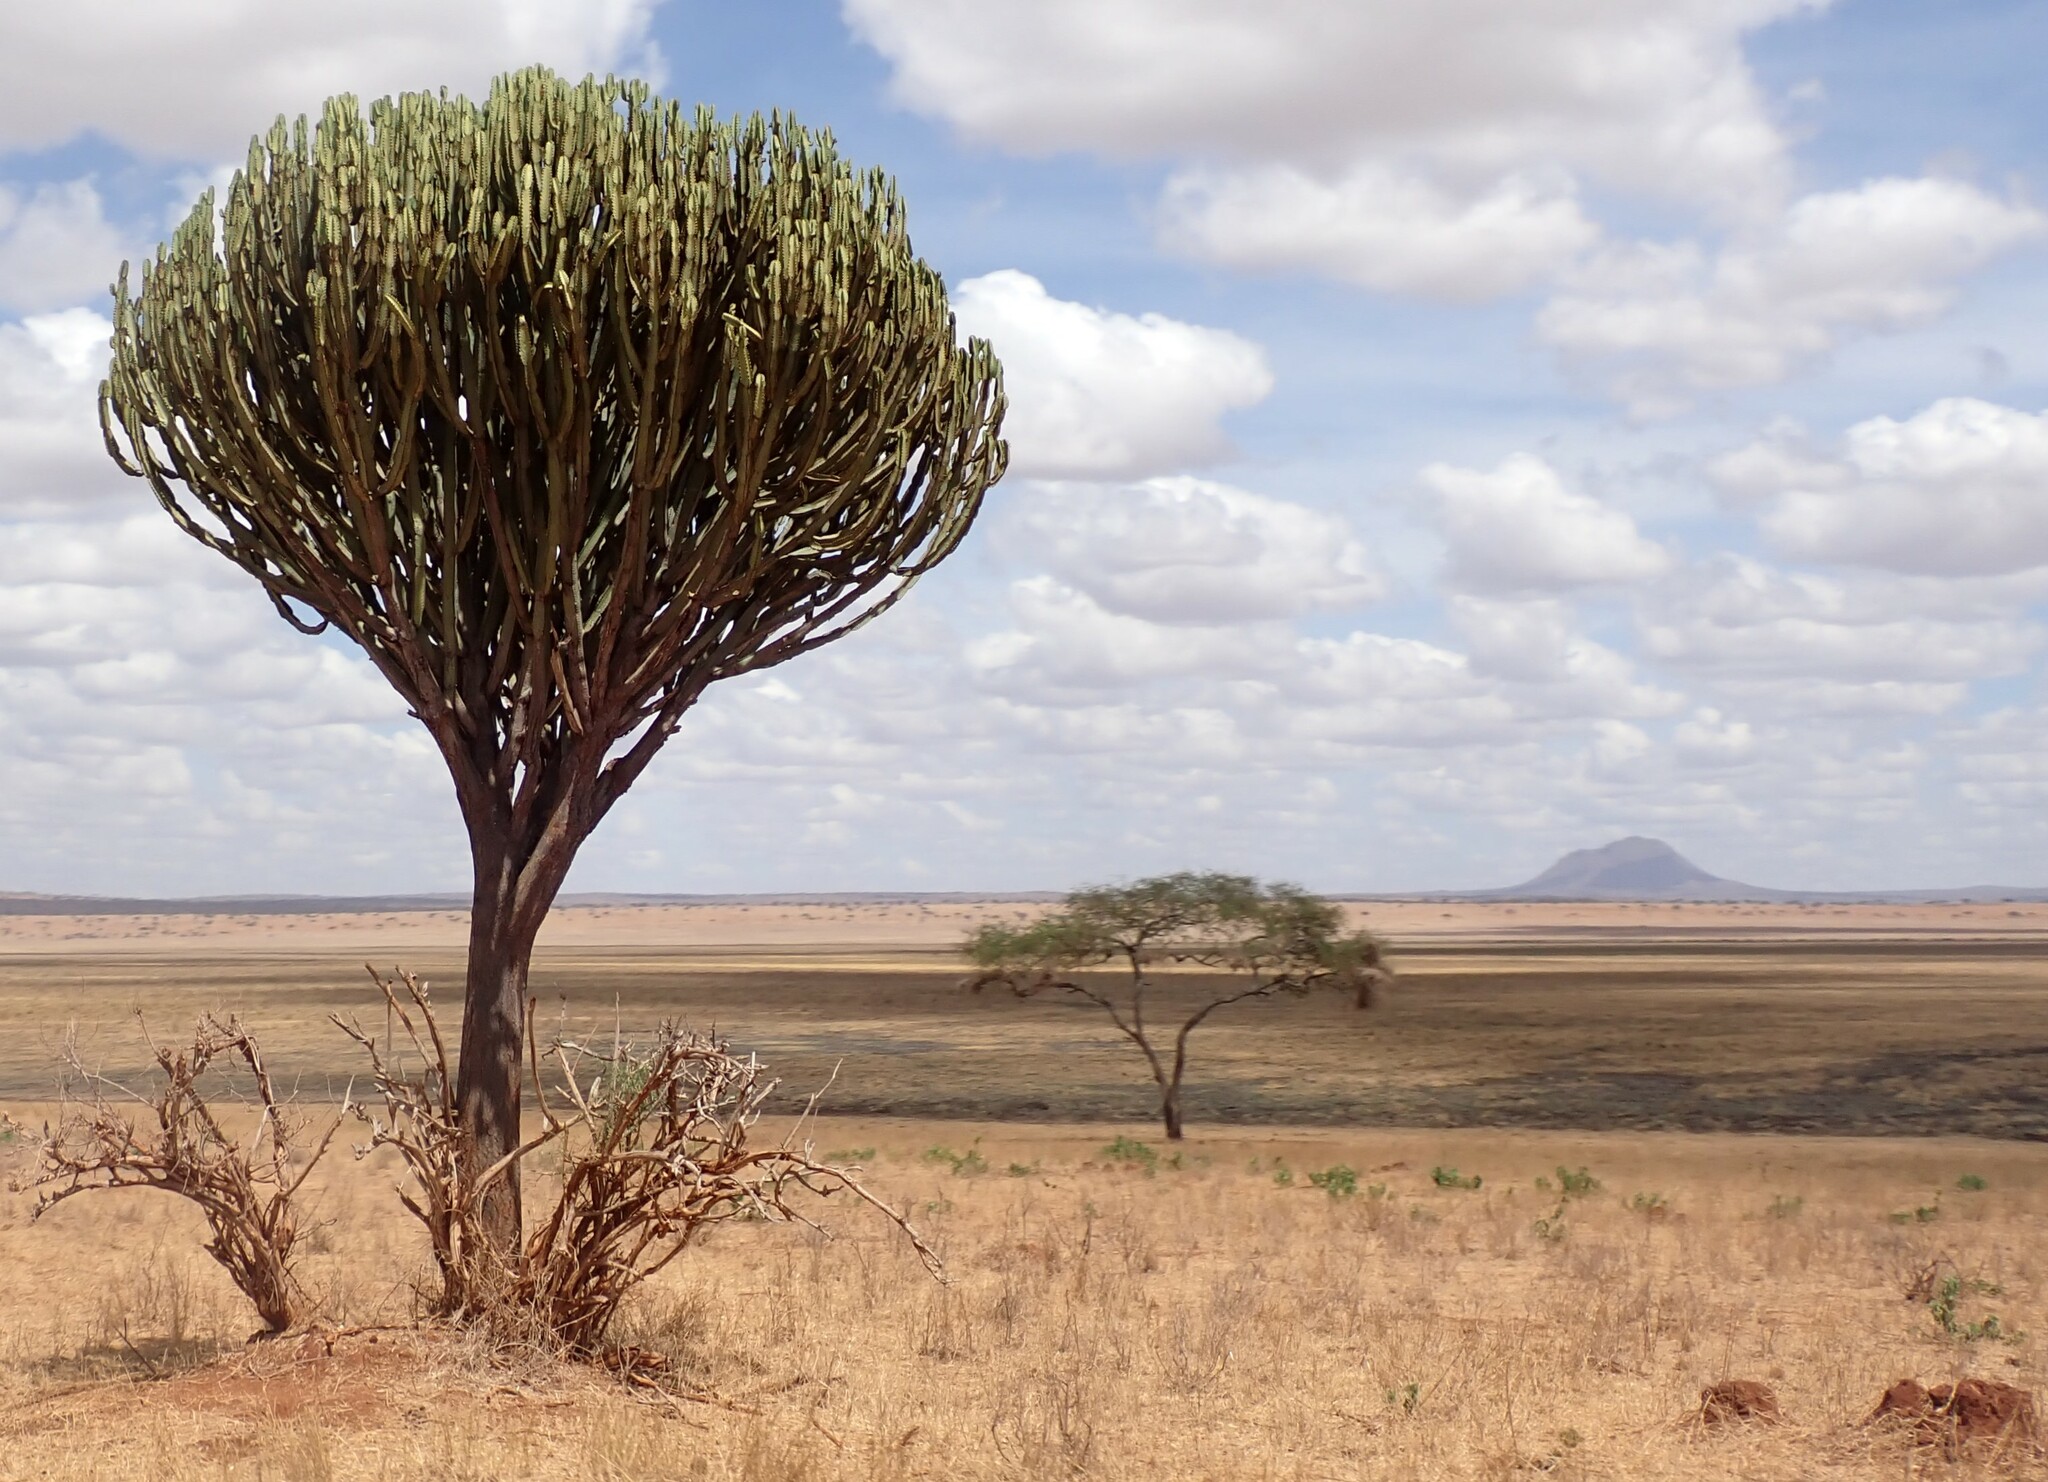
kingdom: Plantae
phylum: Tracheophyta
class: Magnoliopsida
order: Malpighiales
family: Euphorbiaceae
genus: Euphorbia
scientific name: Euphorbia ingens
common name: Cactus spurge
